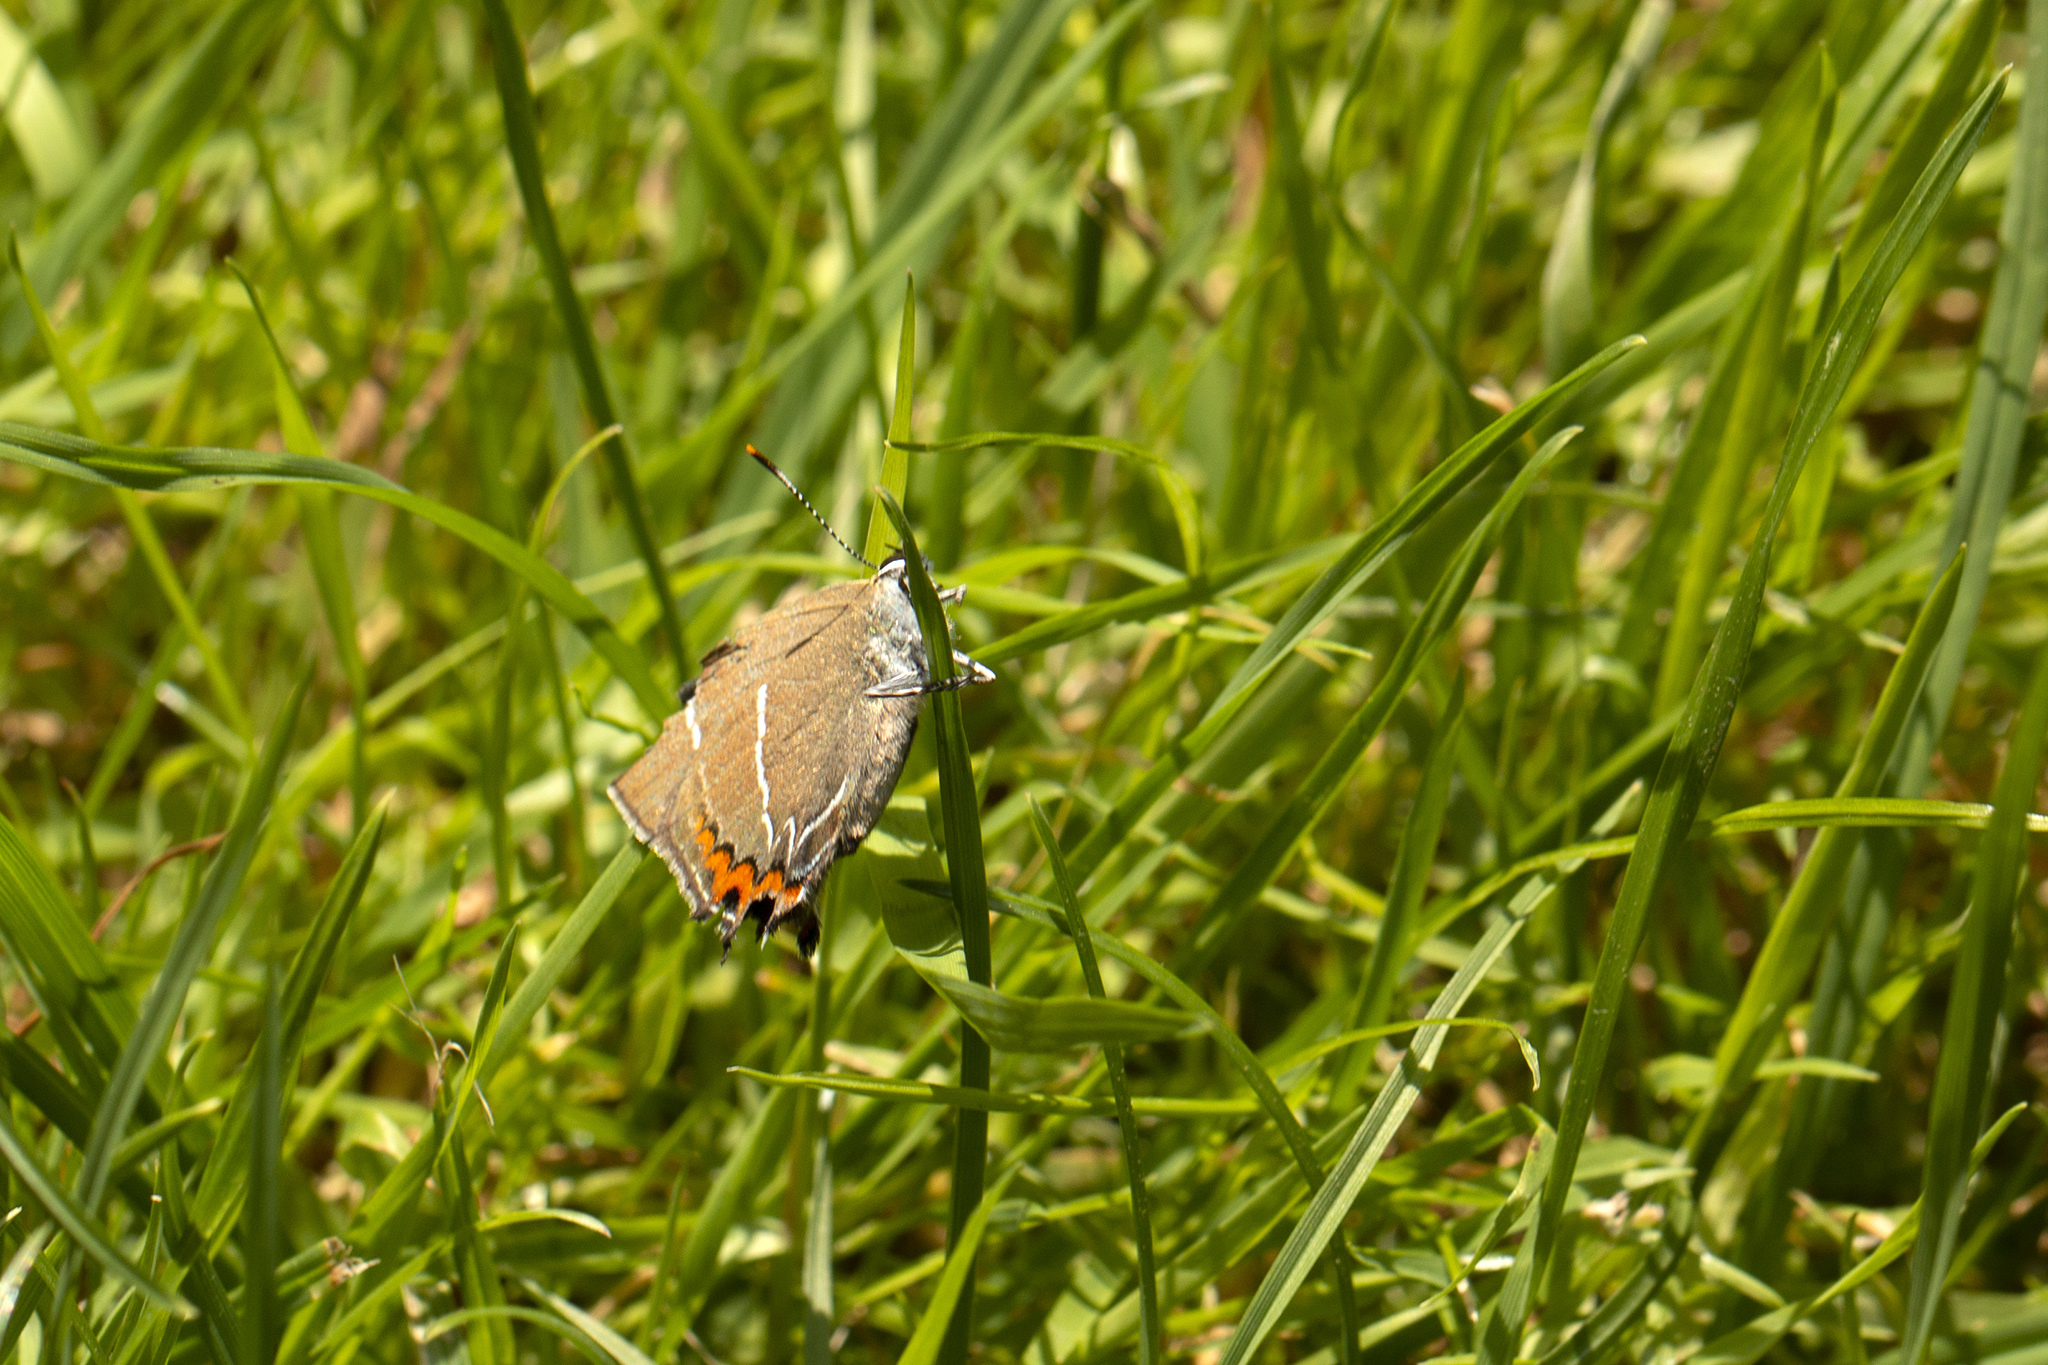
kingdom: Animalia
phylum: Arthropoda
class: Insecta
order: Lepidoptera
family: Lycaenidae
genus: Satyrium
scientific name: Satyrium w-album
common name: White-letter hairstreak
